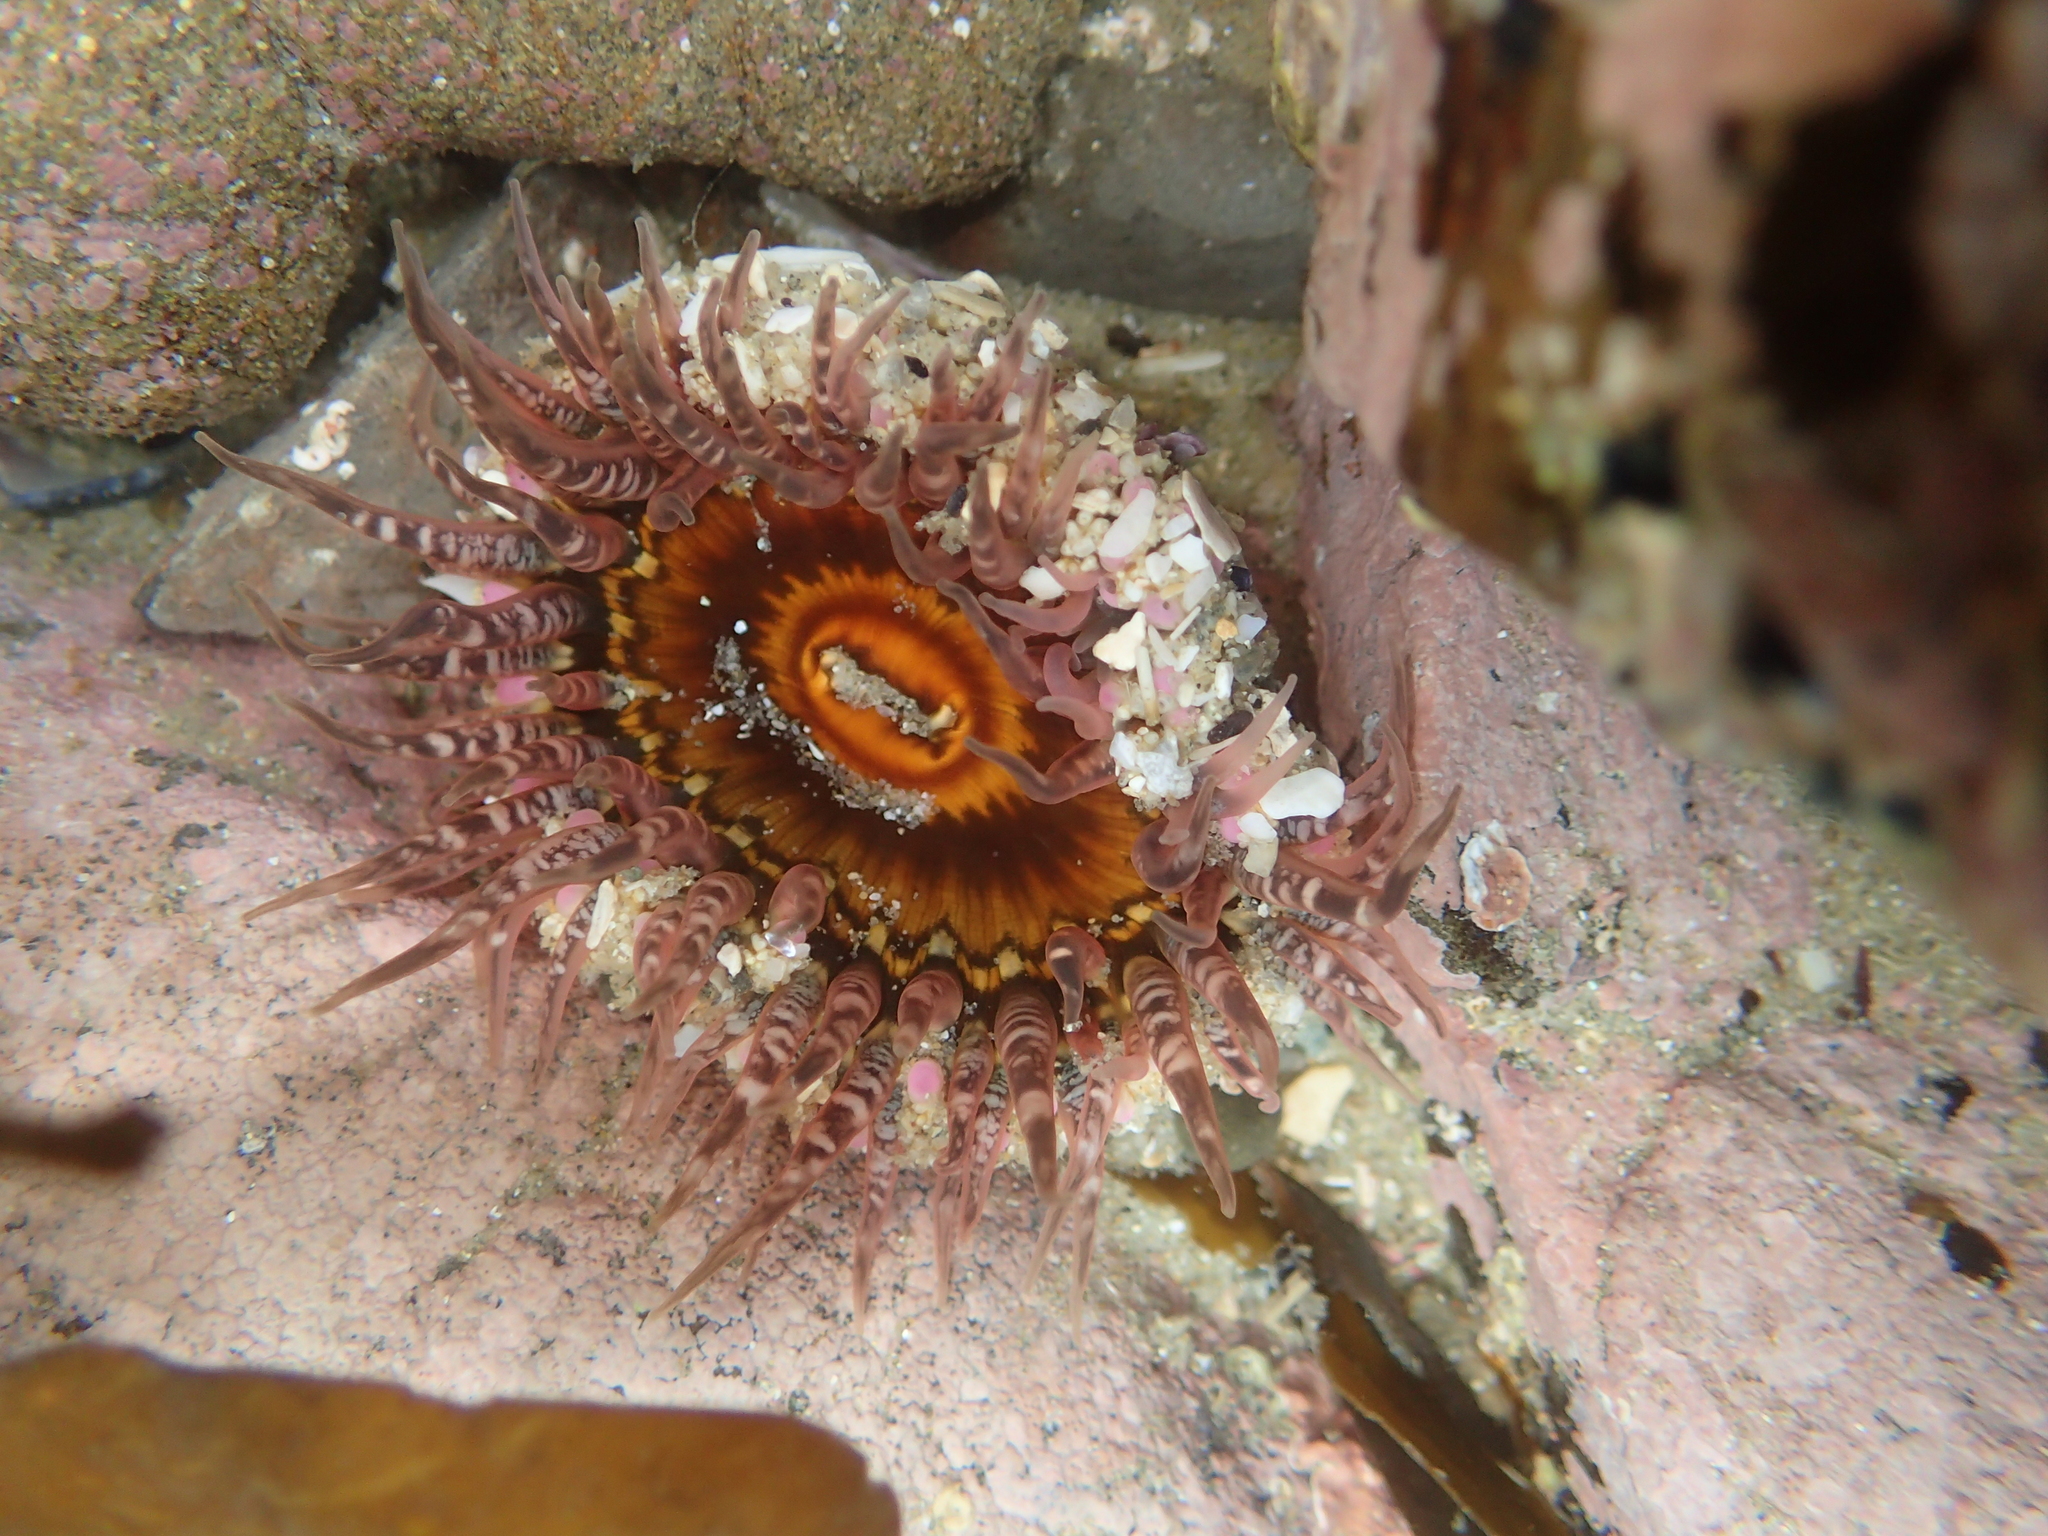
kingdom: Animalia
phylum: Cnidaria
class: Anthozoa
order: Actiniaria
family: Actiniidae
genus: Oulactis
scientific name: Oulactis muscosa
